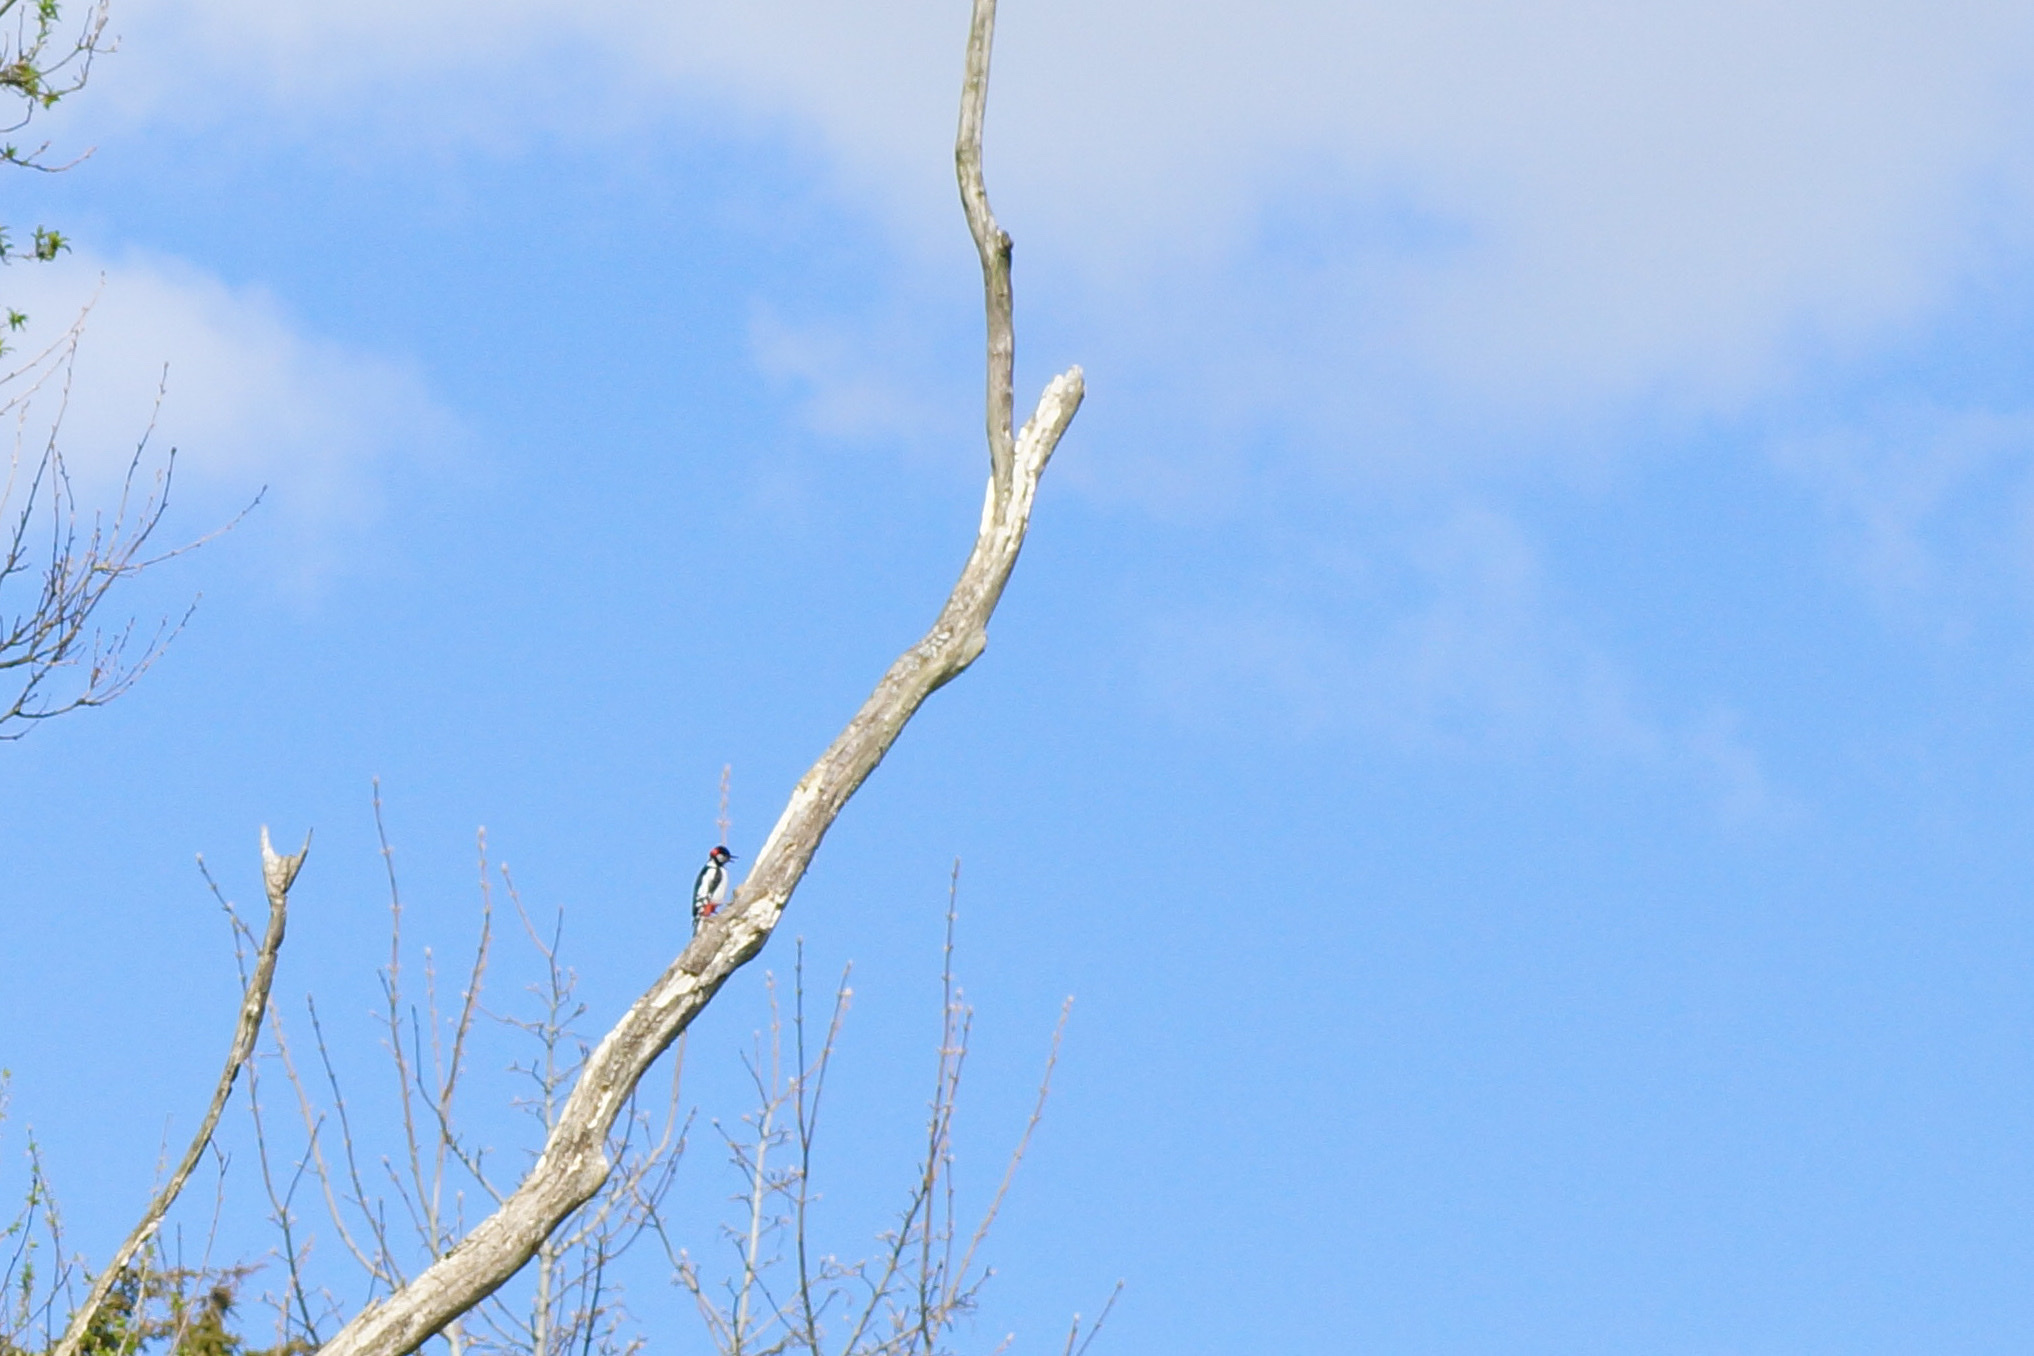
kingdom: Animalia
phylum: Chordata
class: Aves
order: Piciformes
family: Picidae
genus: Dendrocopos
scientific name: Dendrocopos major
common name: Great spotted woodpecker
